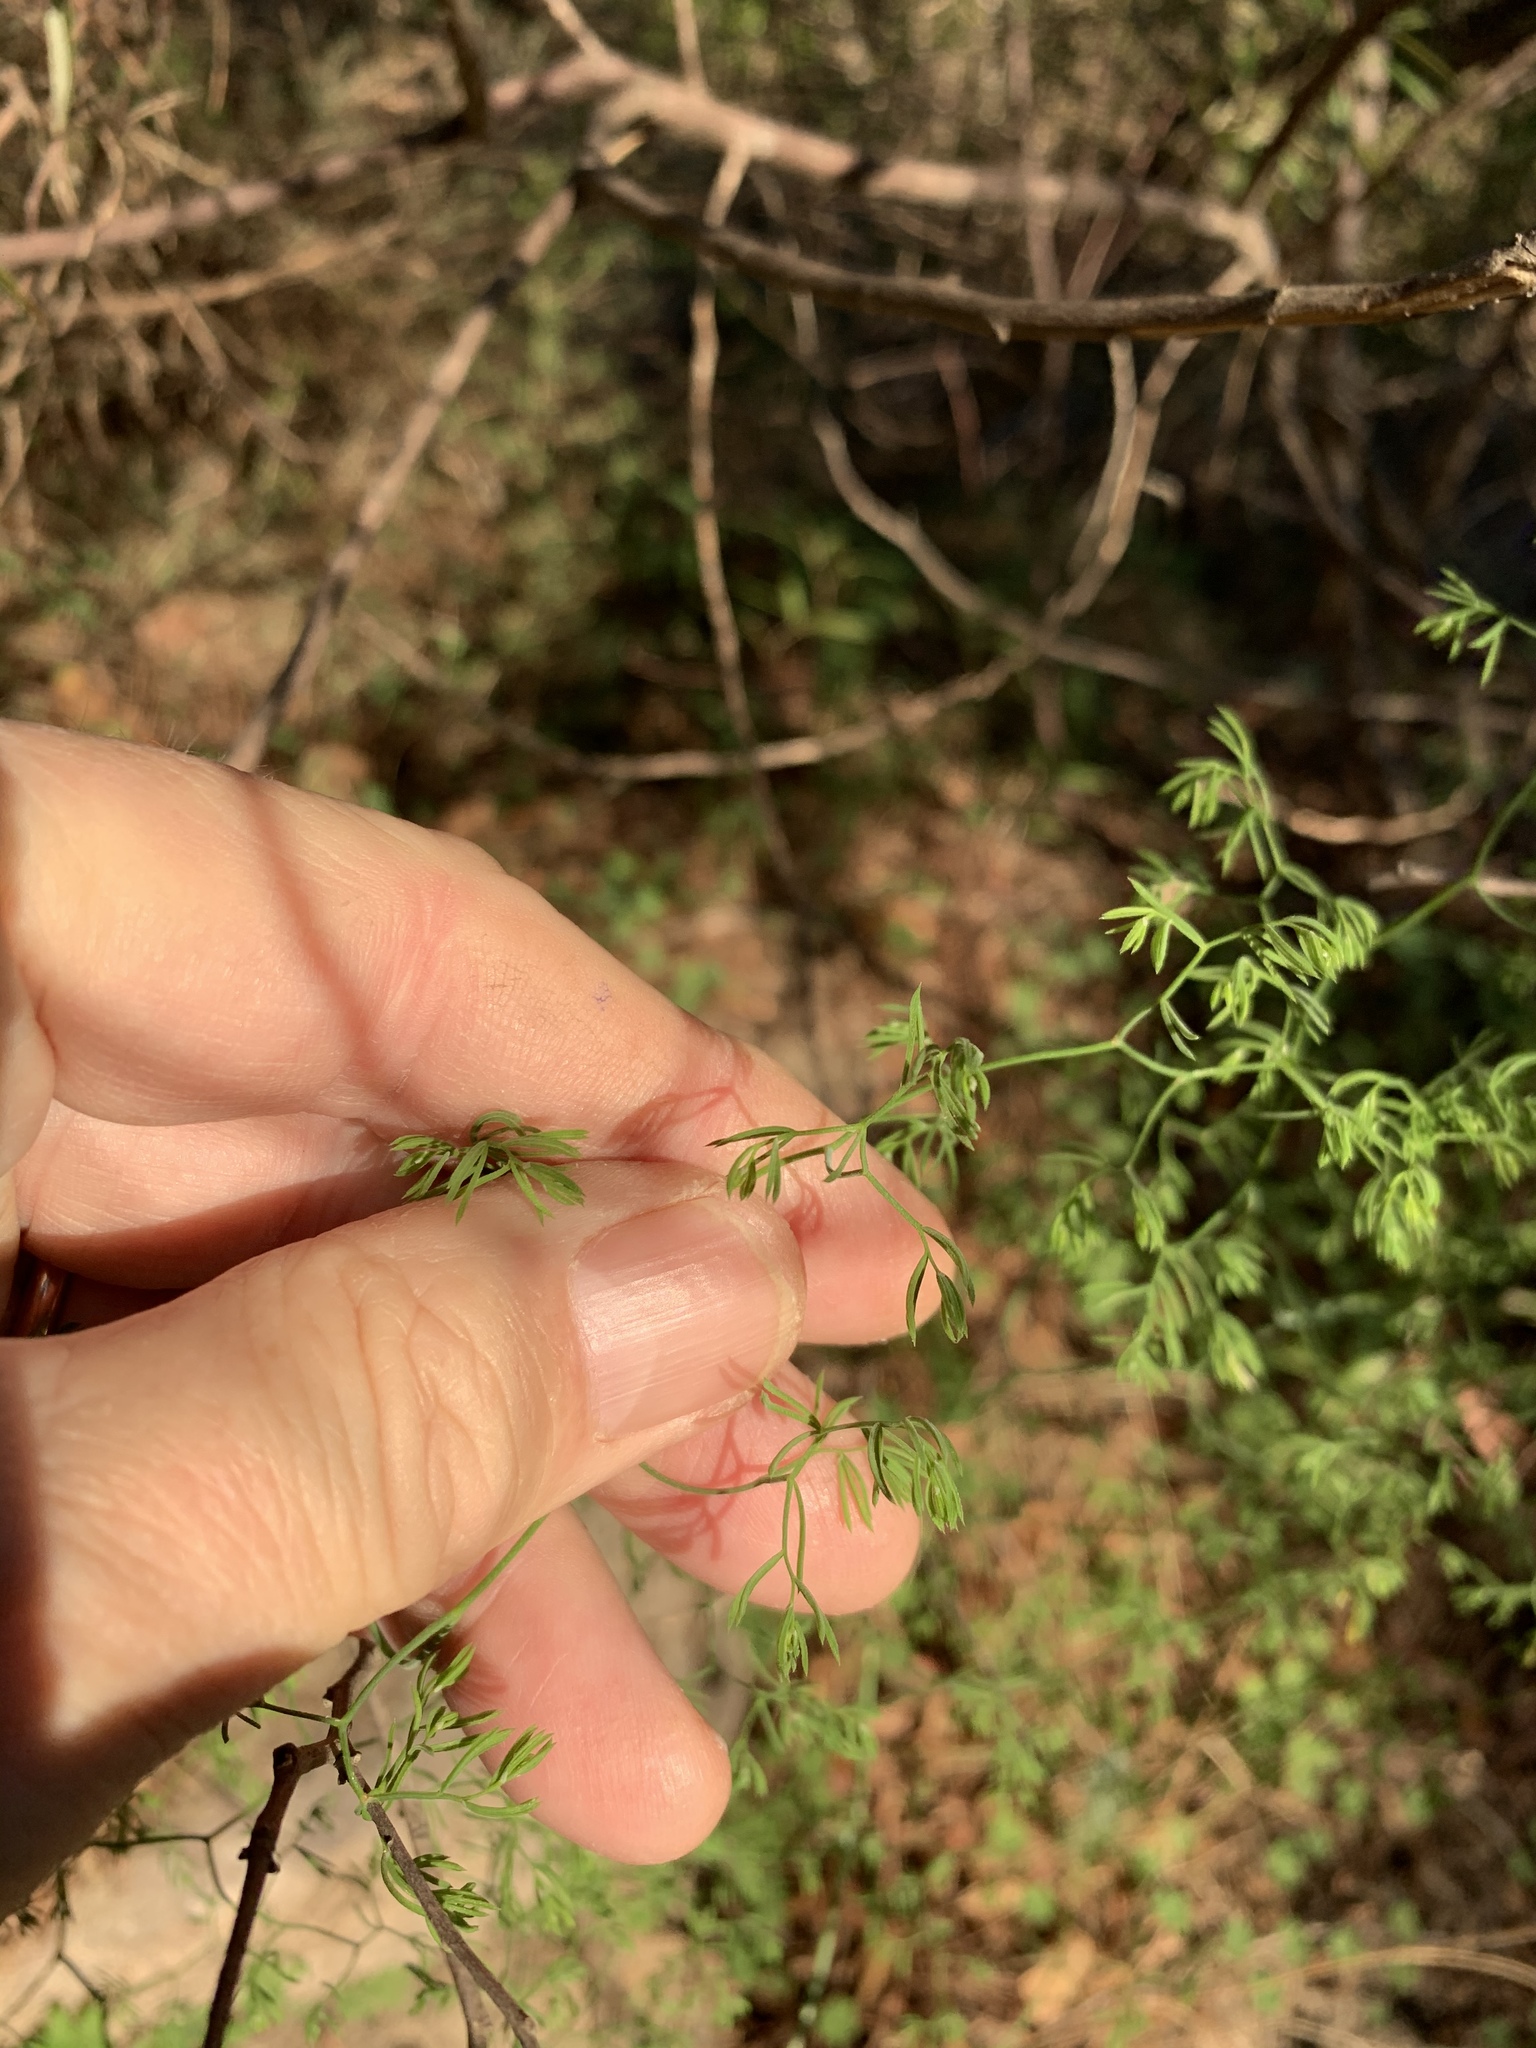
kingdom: Plantae
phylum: Tracheophyta
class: Liliopsida
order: Asparagales
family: Asparagaceae
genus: Asparagus
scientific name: Asparagus declinatus
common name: Bridal-creeper
